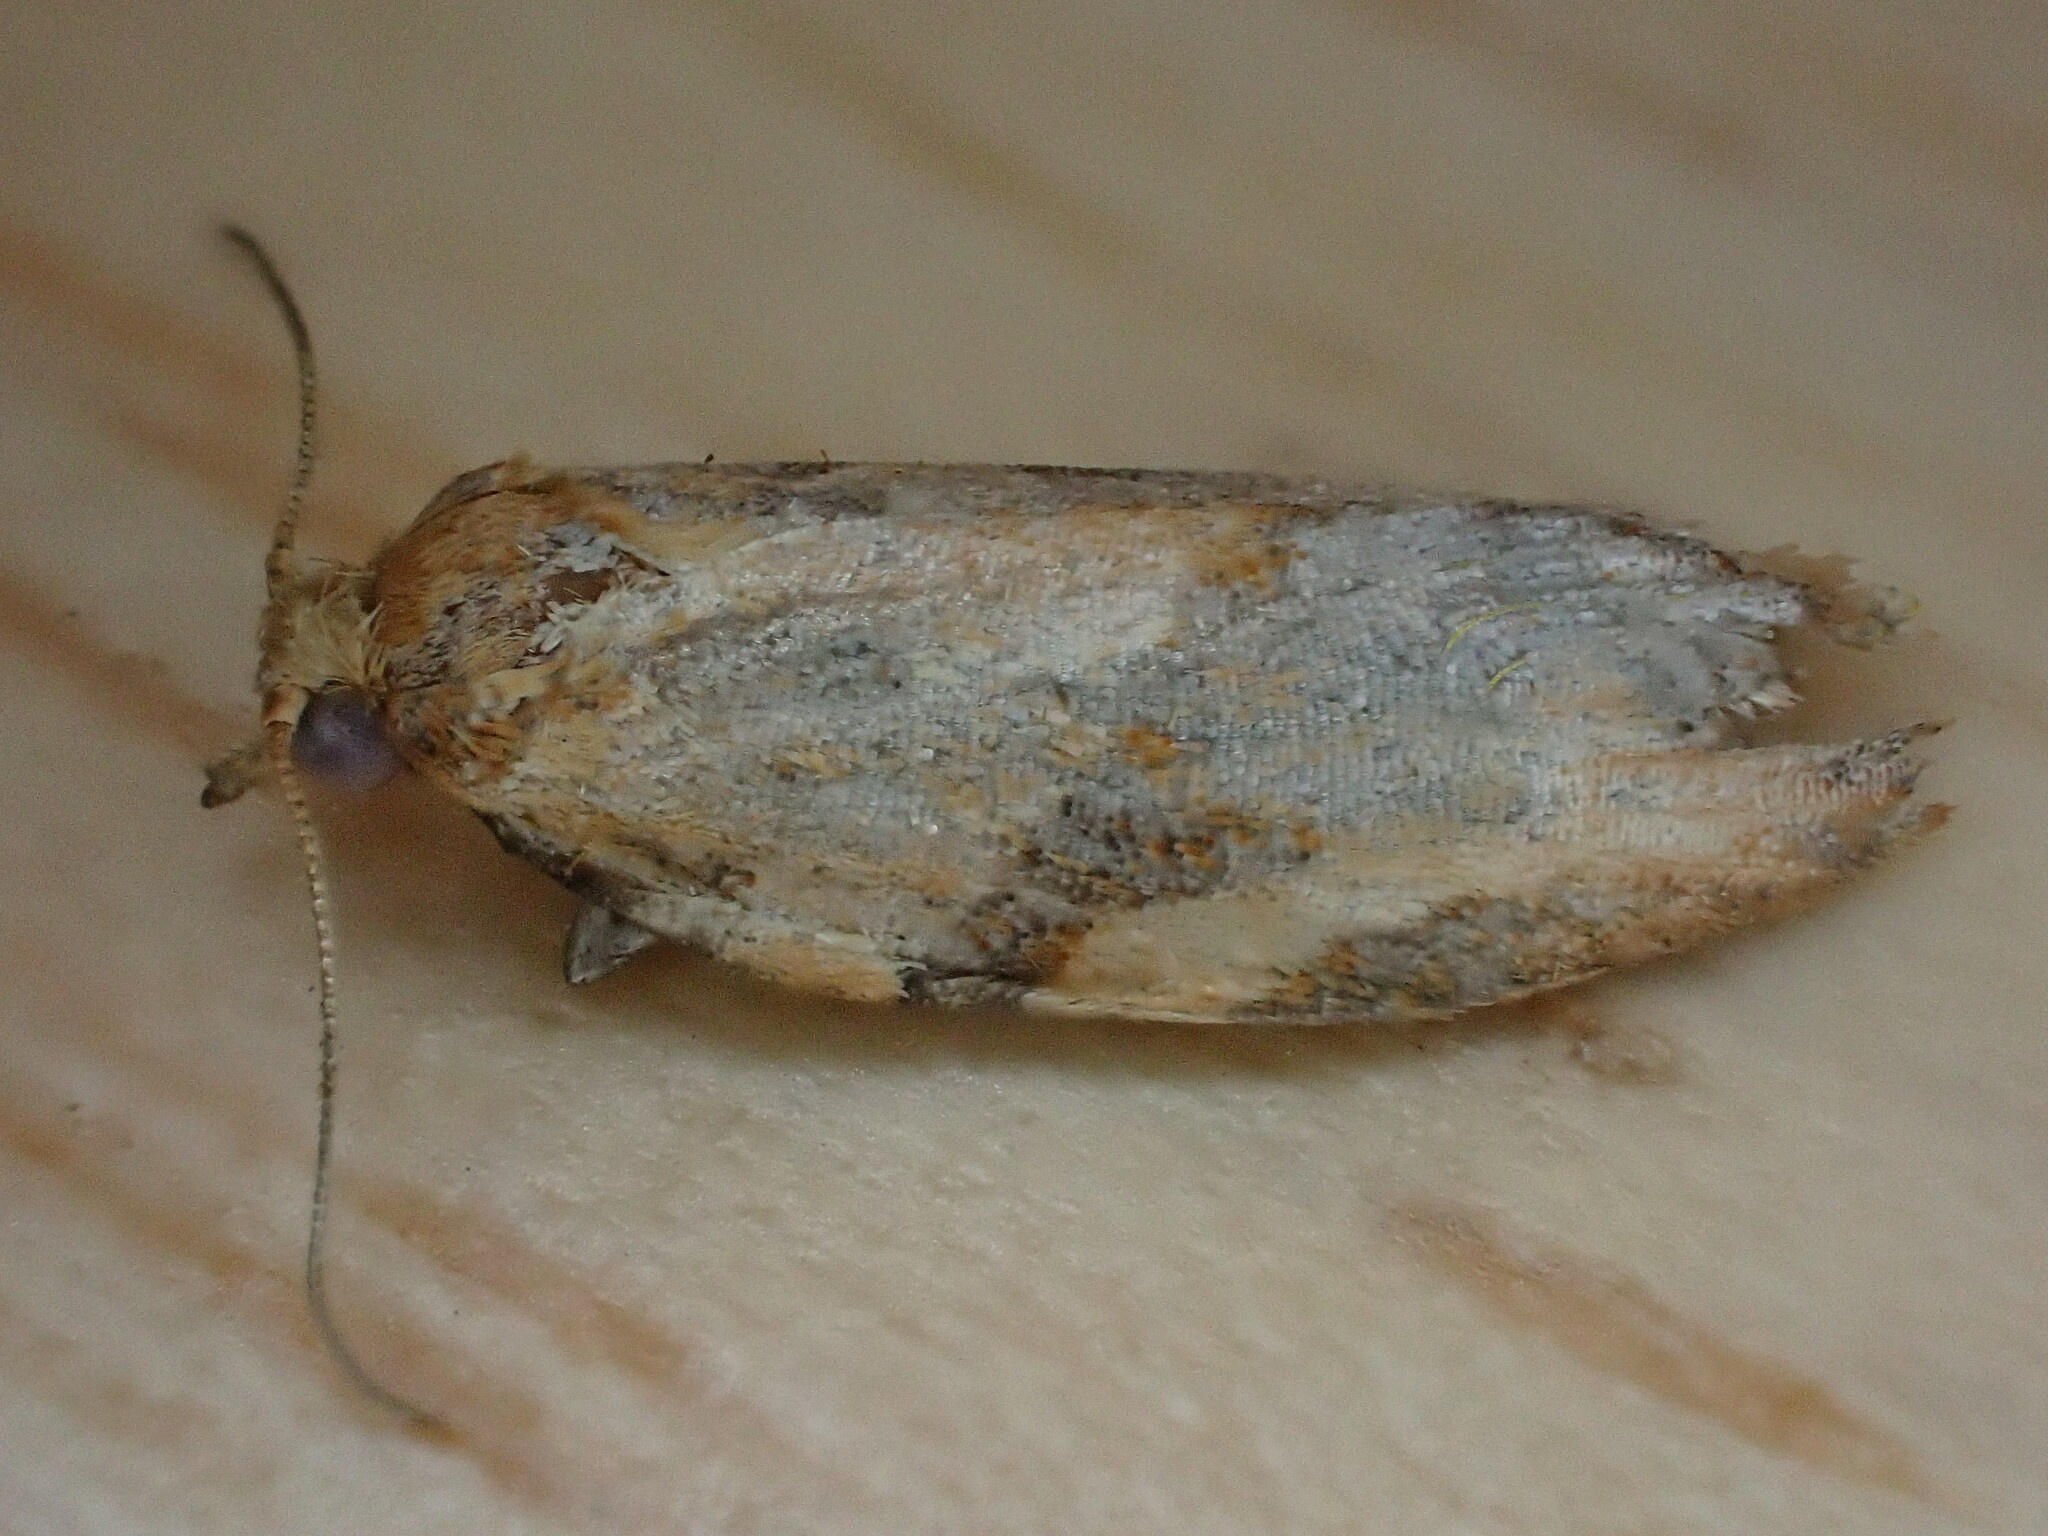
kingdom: Animalia
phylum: Arthropoda
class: Insecta
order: Lepidoptera
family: Tortricidae
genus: Epiphyas
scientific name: Epiphyas postvittana
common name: Light brown apple moth
